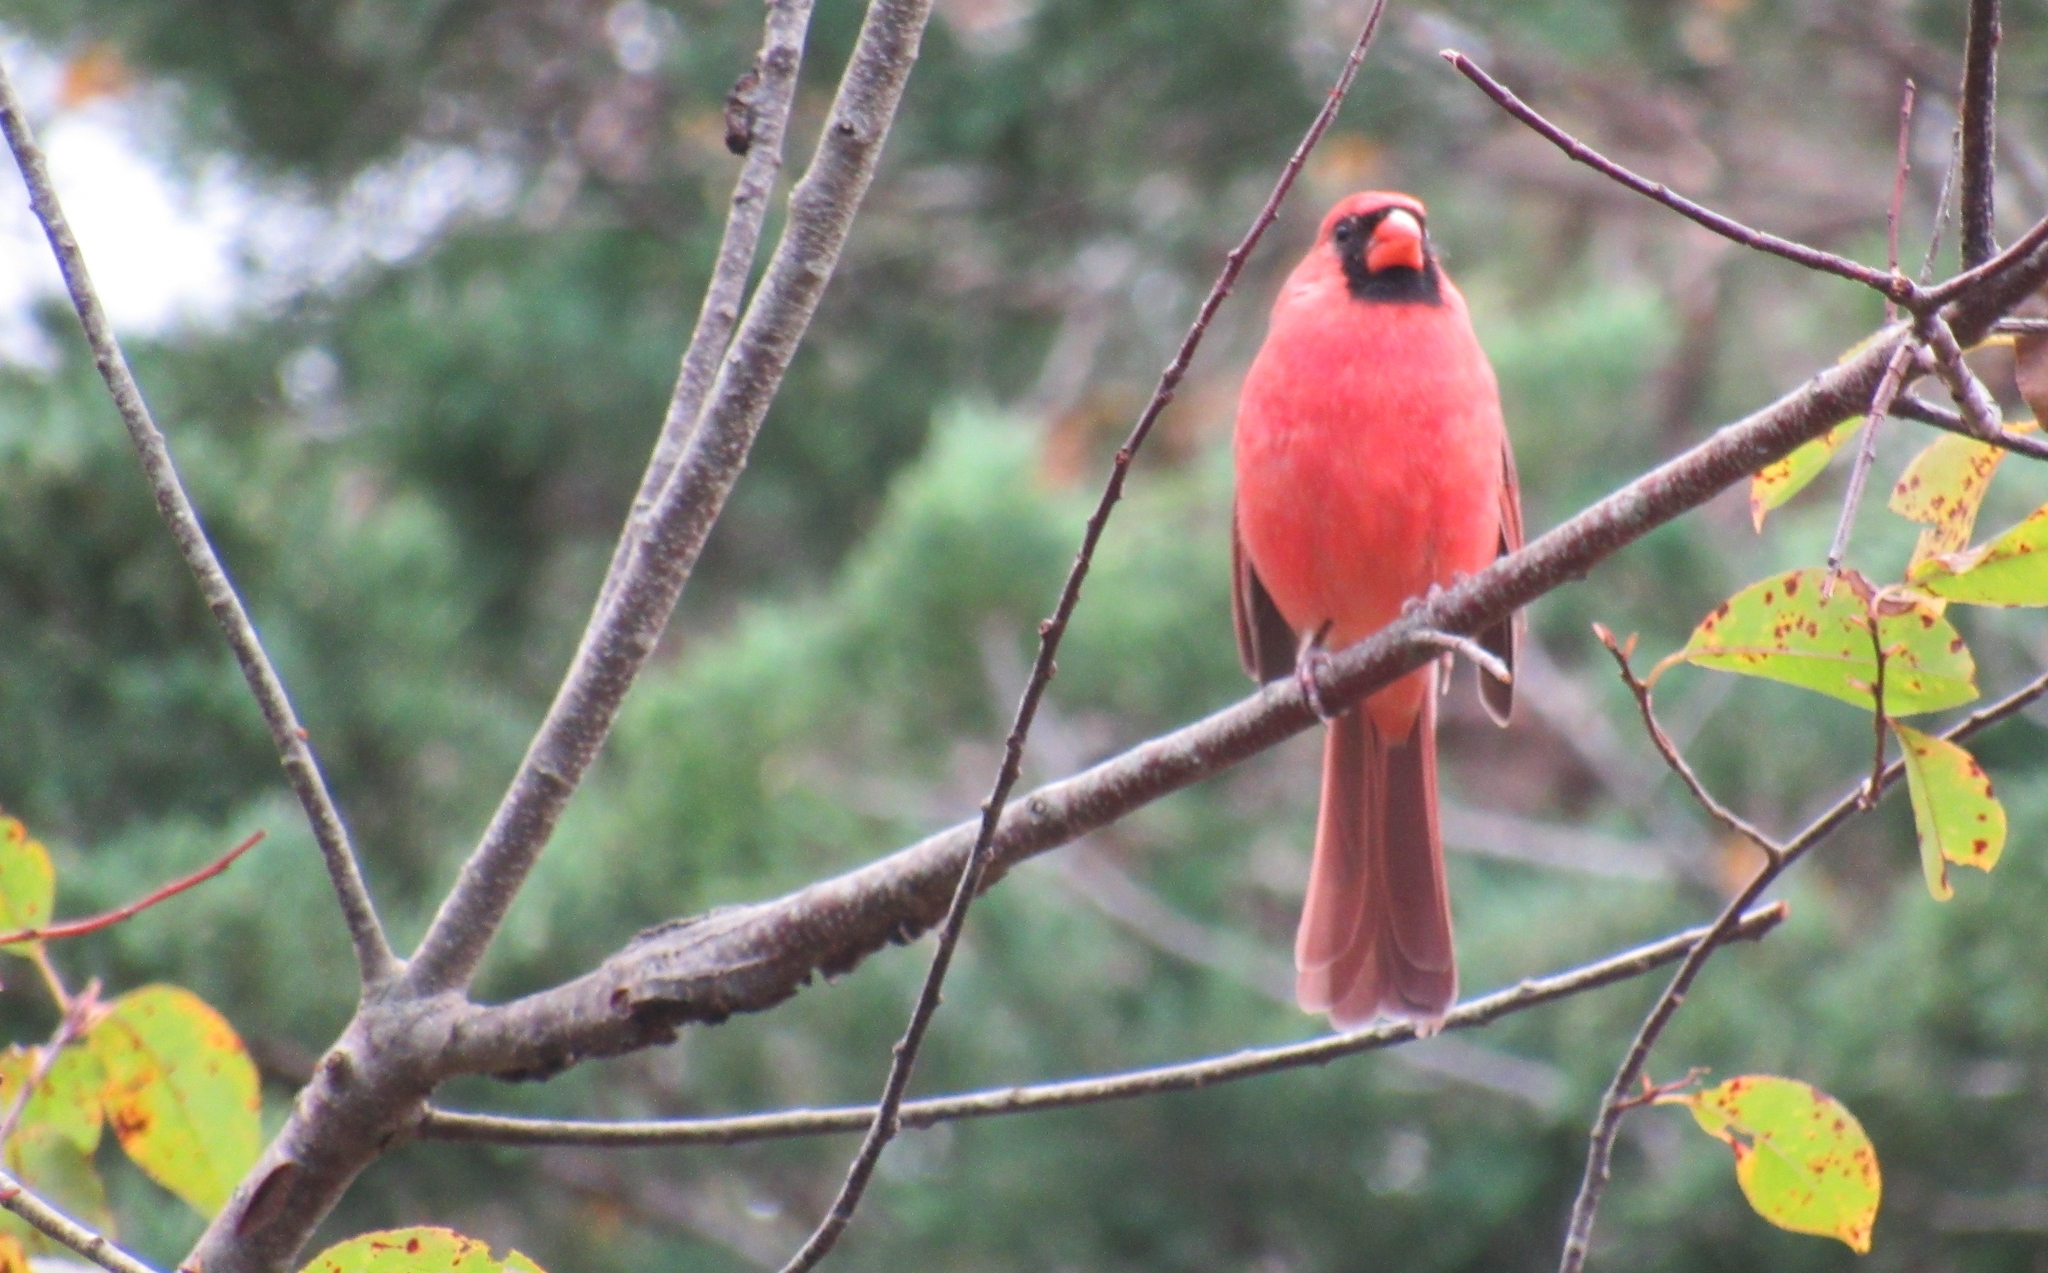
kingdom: Animalia
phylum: Chordata
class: Aves
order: Passeriformes
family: Cardinalidae
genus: Cardinalis
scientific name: Cardinalis cardinalis
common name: Northern cardinal
